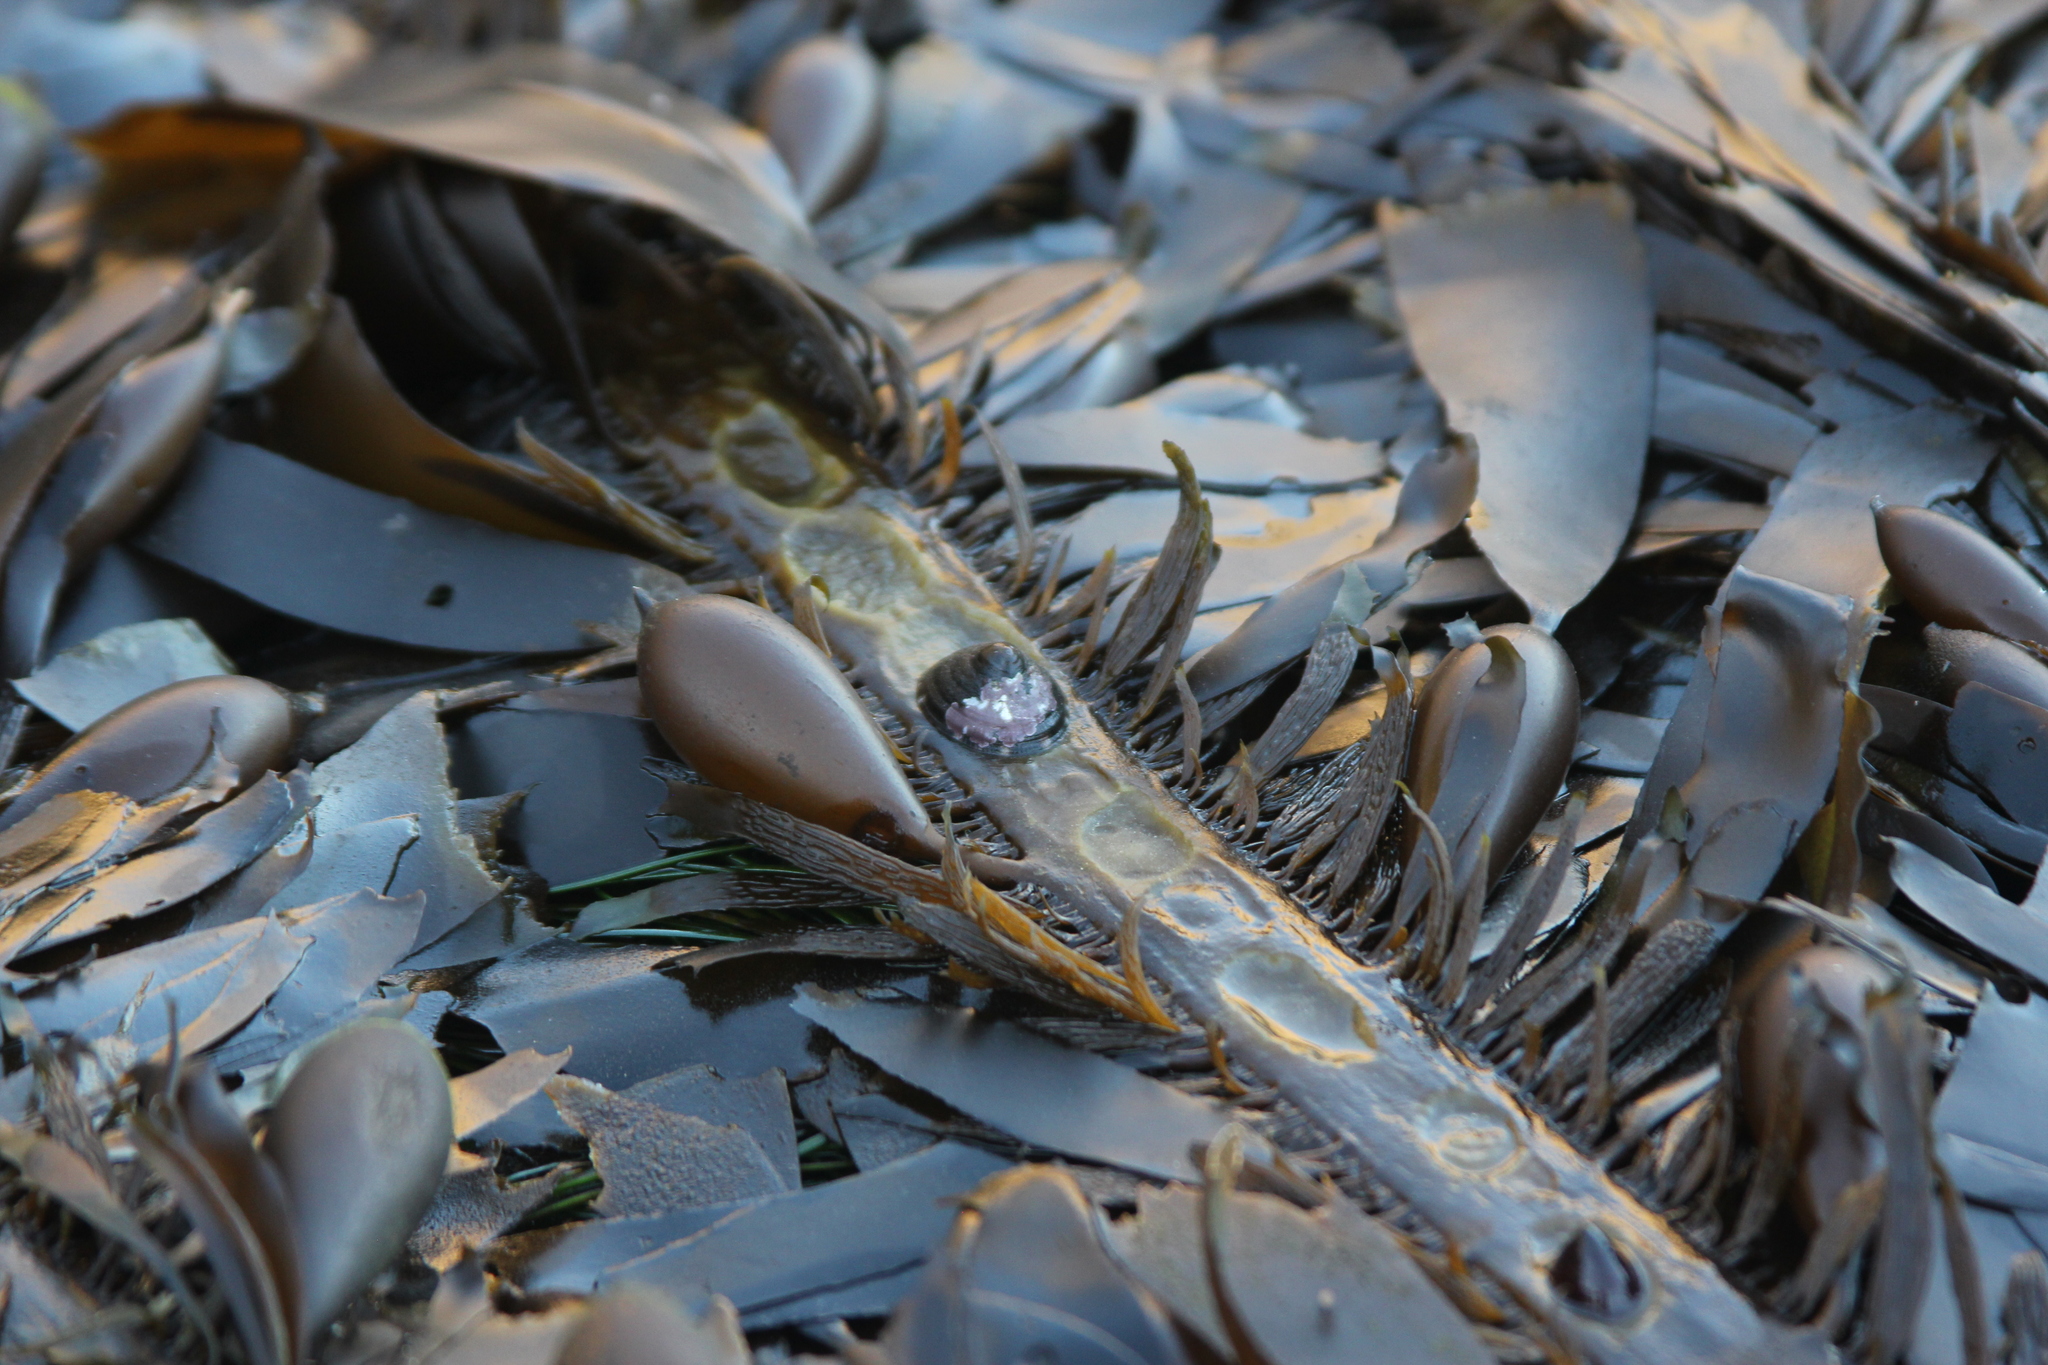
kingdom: Chromista
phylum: Ochrophyta
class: Phaeophyceae
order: Laminariales
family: Lessoniaceae
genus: Egregia
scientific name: Egregia menziesii
